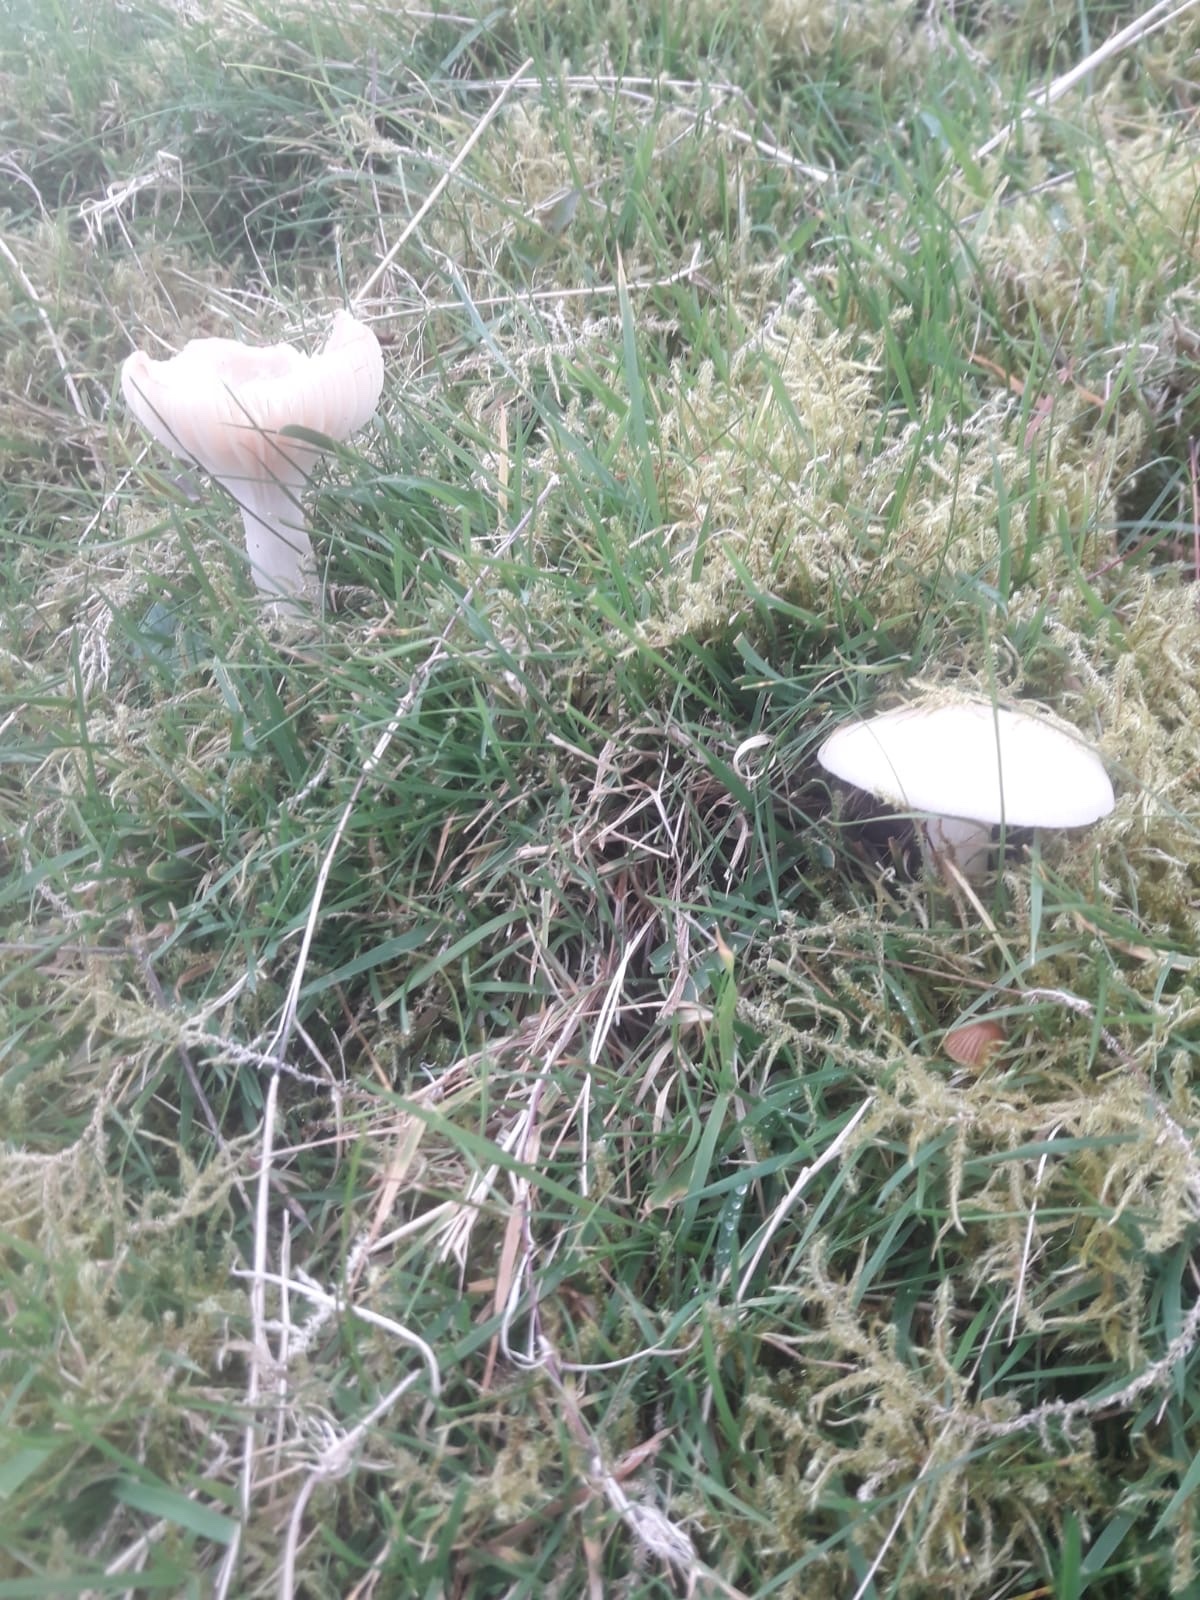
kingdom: Fungi
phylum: Basidiomycota
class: Agaricomycetes
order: Agaricales
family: Hygrophoraceae
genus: Cuphophyllus
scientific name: Cuphophyllus virgineus
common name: Snowy waxcap
